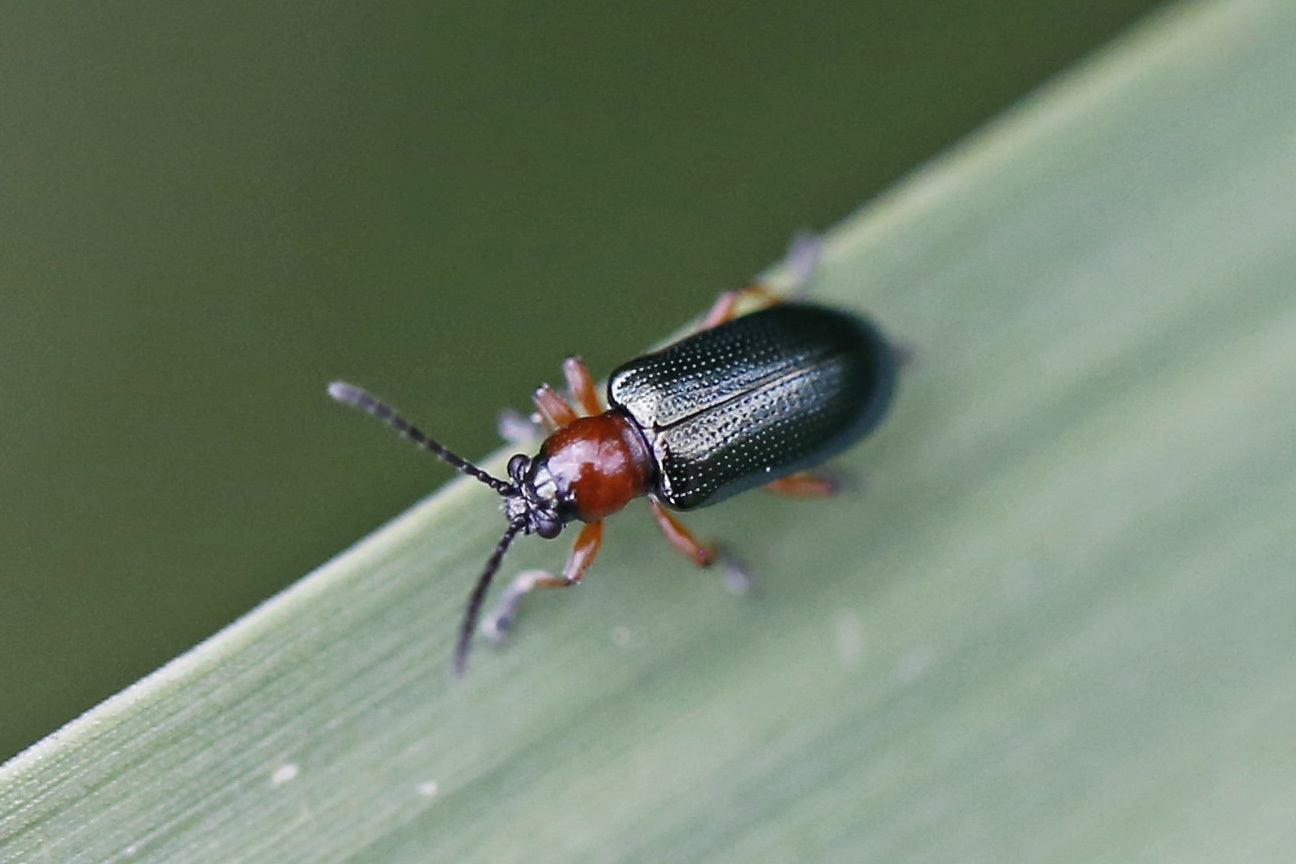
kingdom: Animalia
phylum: Arthropoda
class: Insecta
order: Coleoptera
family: Chrysomelidae
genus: Oulema
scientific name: Oulema melanopus
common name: Cereal leaf beetle
